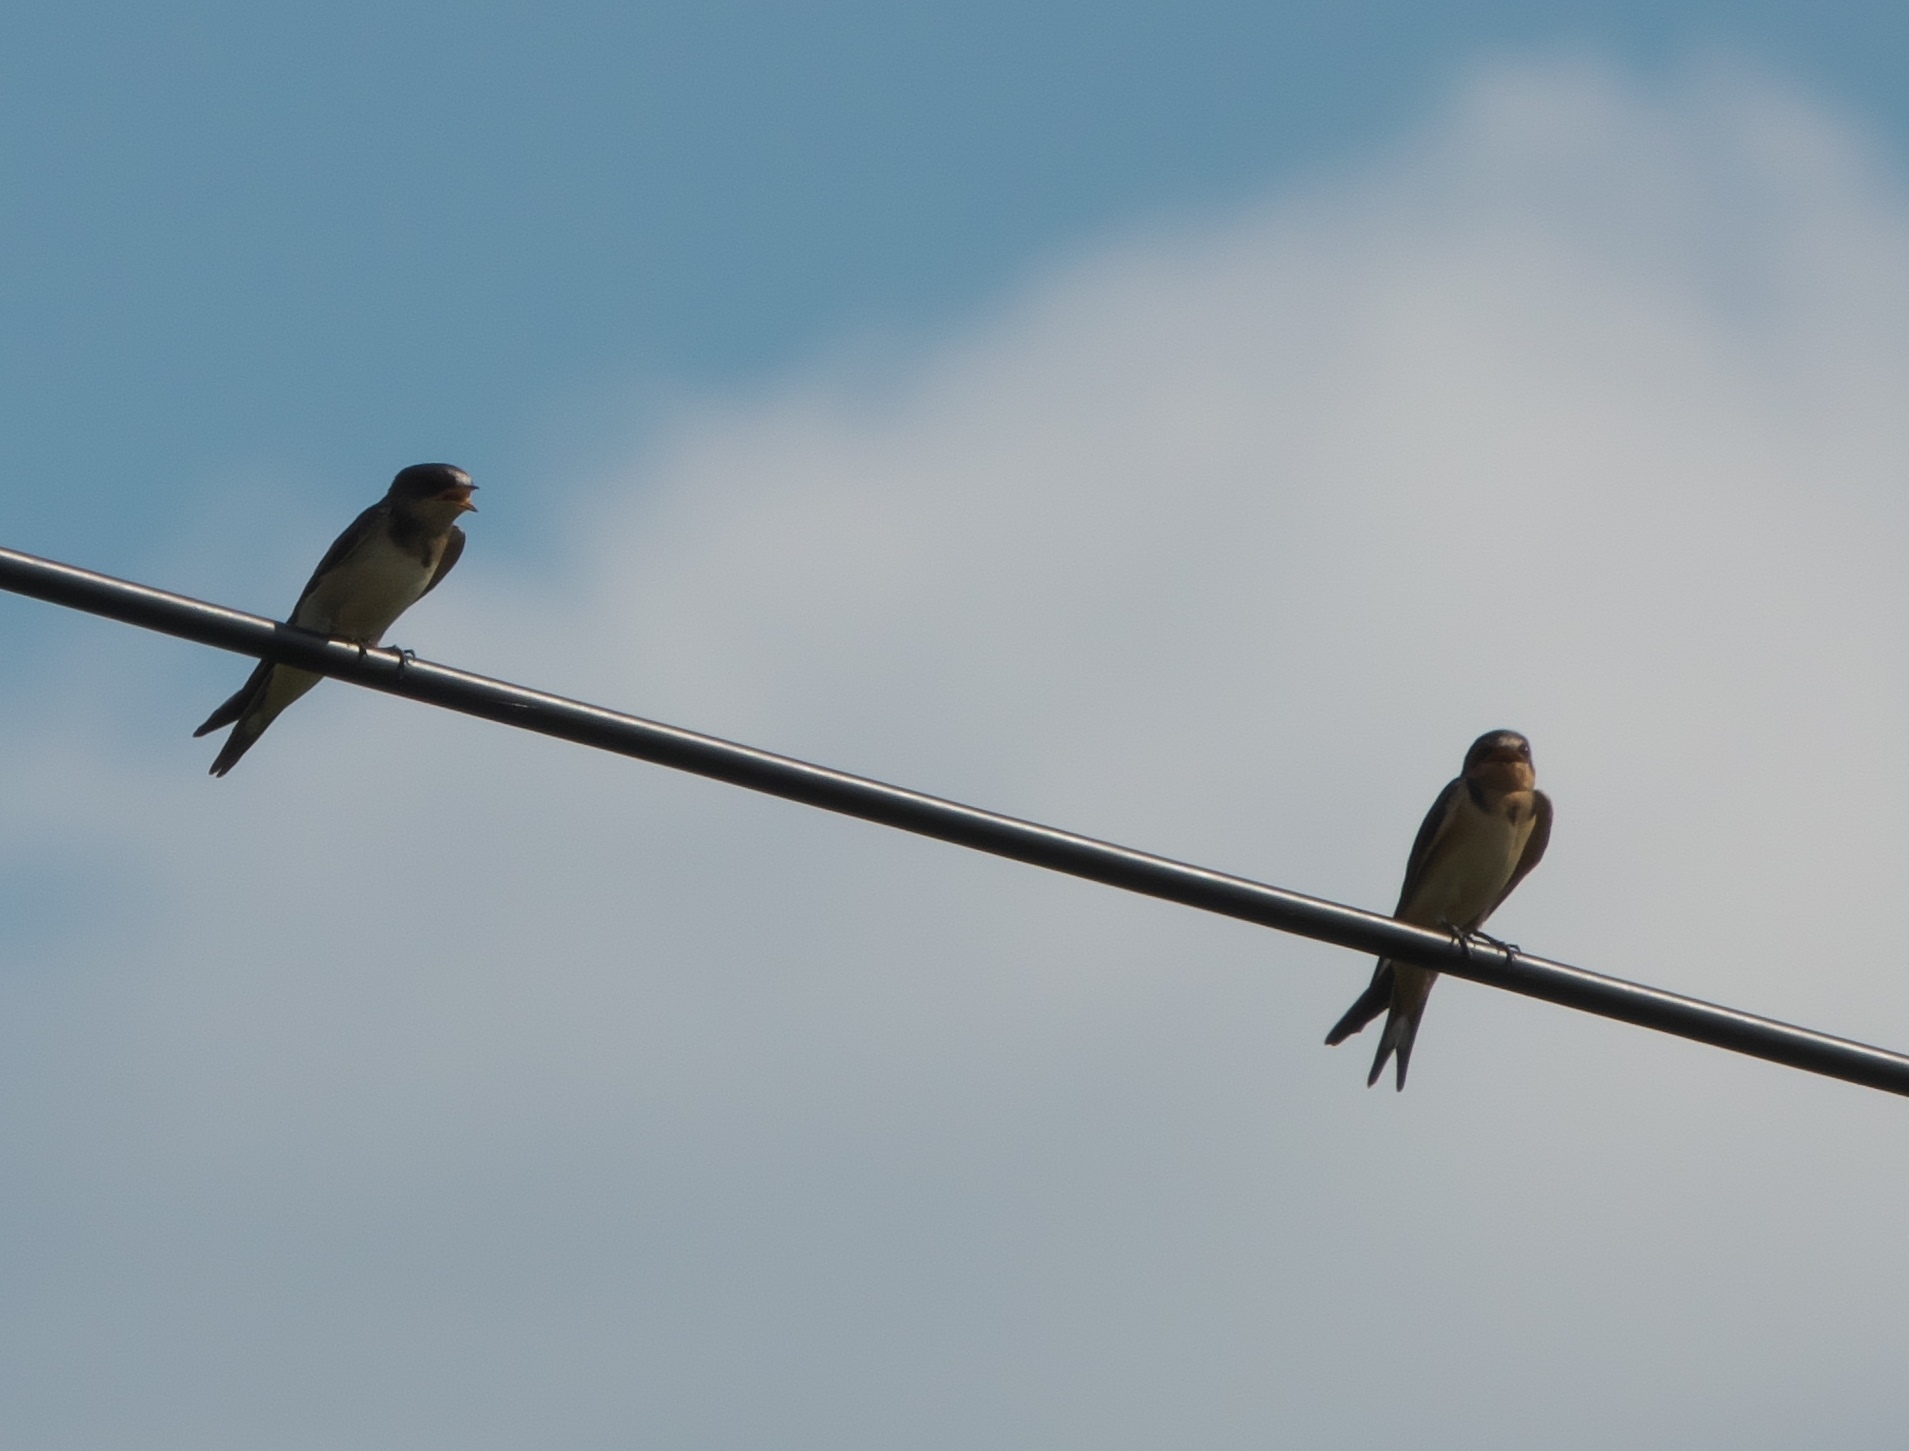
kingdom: Animalia
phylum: Chordata
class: Aves
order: Passeriformes
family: Hirundinidae
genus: Hirundo
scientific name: Hirundo rustica
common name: Barn swallow
